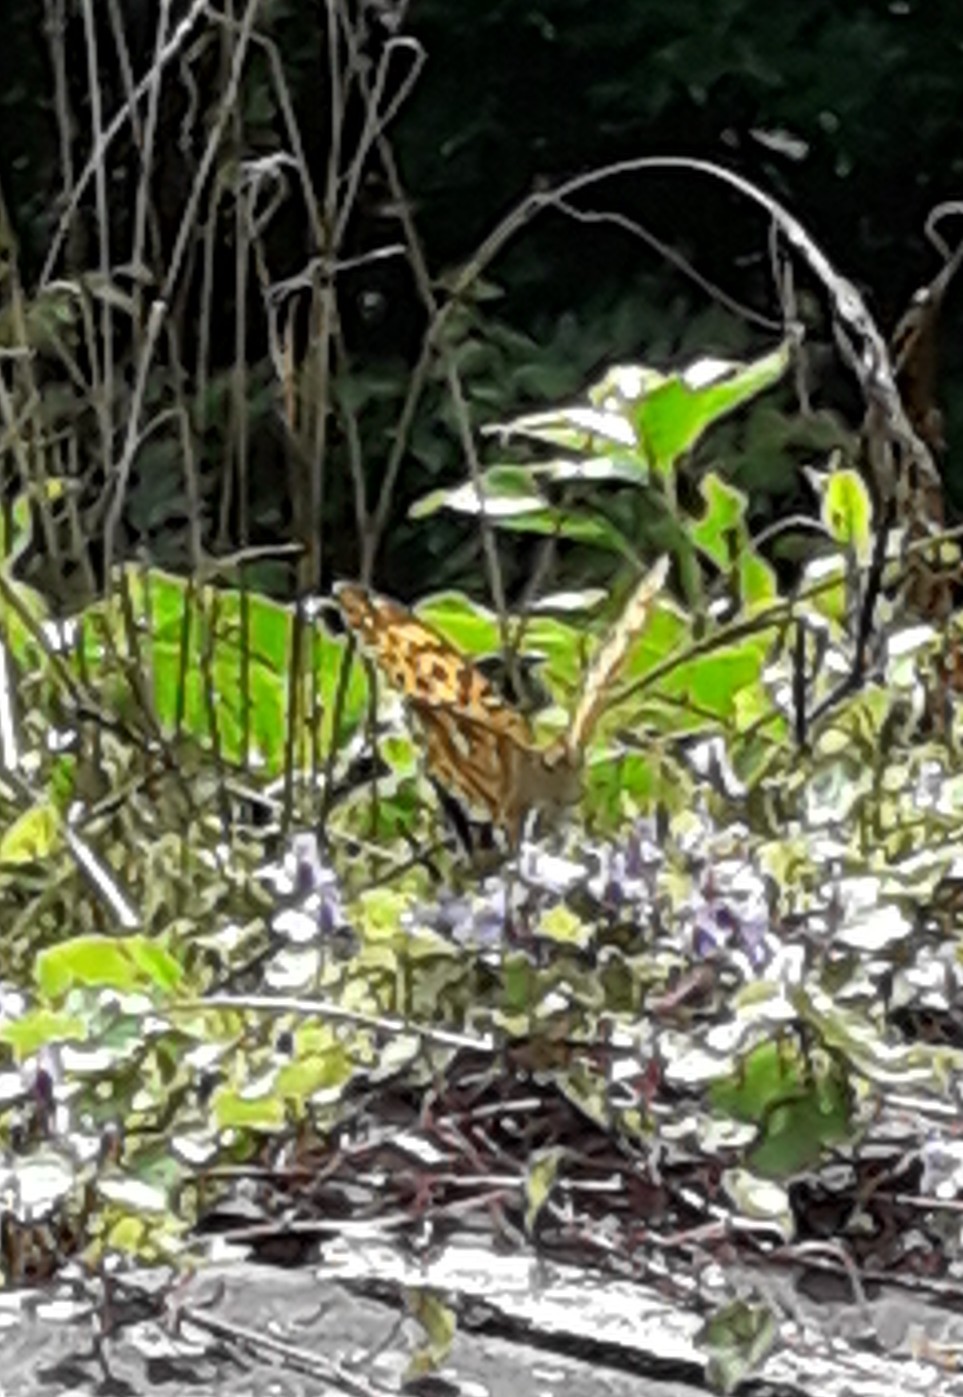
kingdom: Animalia
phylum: Arthropoda
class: Insecta
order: Lepidoptera
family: Nymphalidae
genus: Argynnis
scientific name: Argynnis paphia
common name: Silver-washed fritillary
